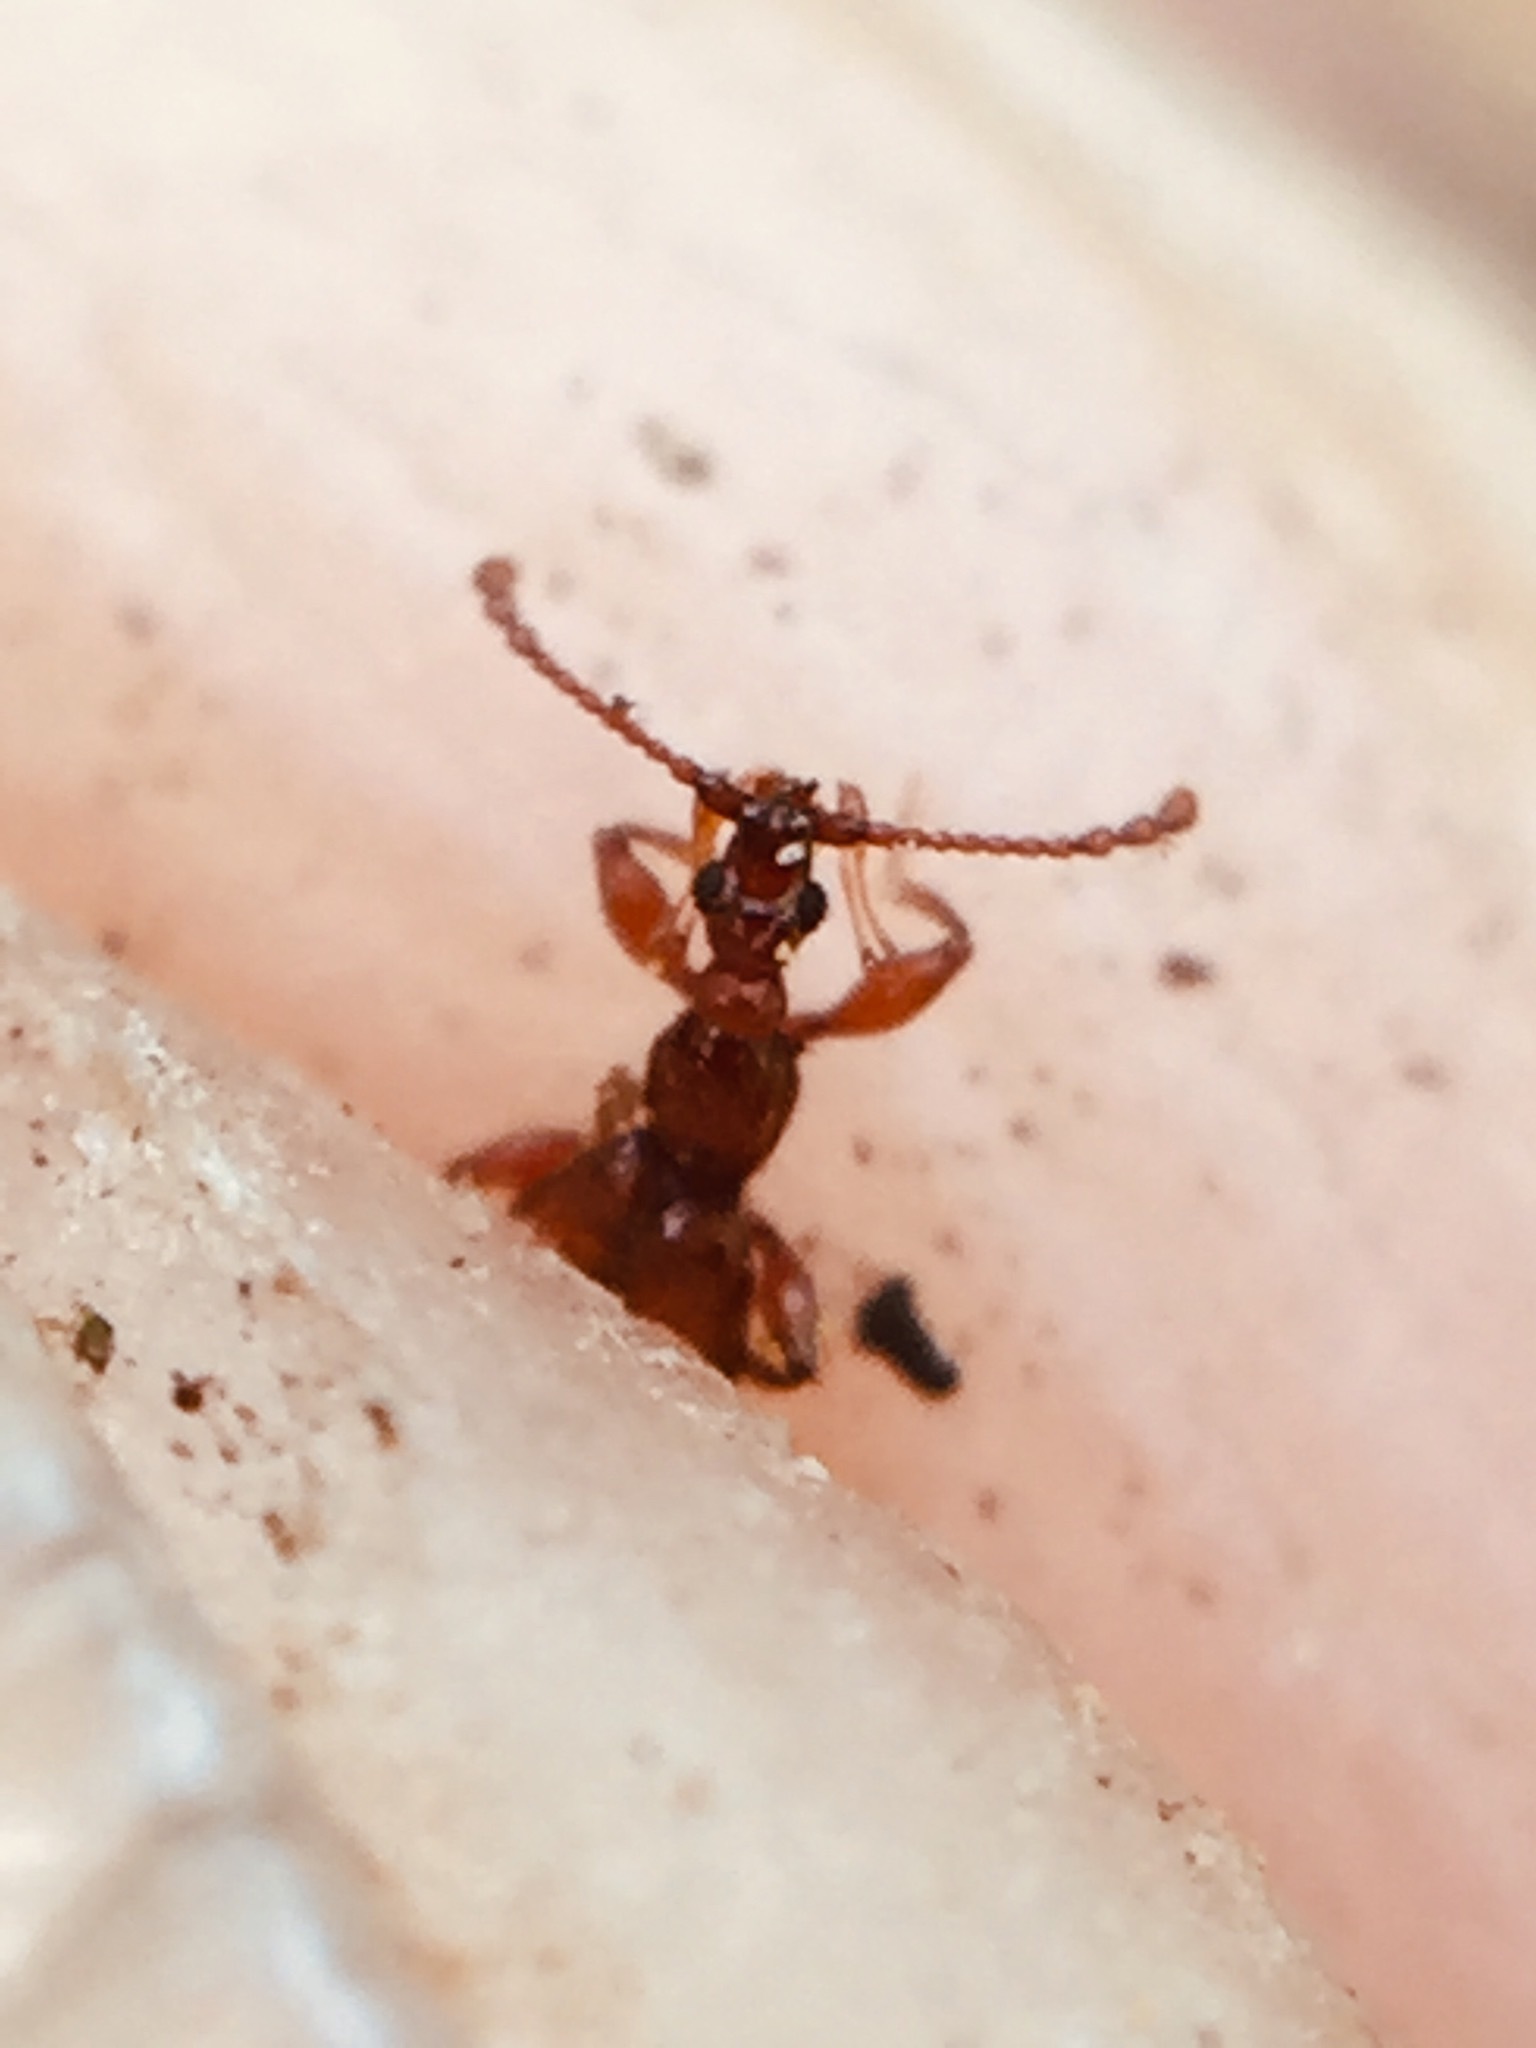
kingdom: Animalia
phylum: Arthropoda
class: Insecta
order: Coleoptera
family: Staphylinidae
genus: Pselaphaulax
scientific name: Pselaphaulax pauper
